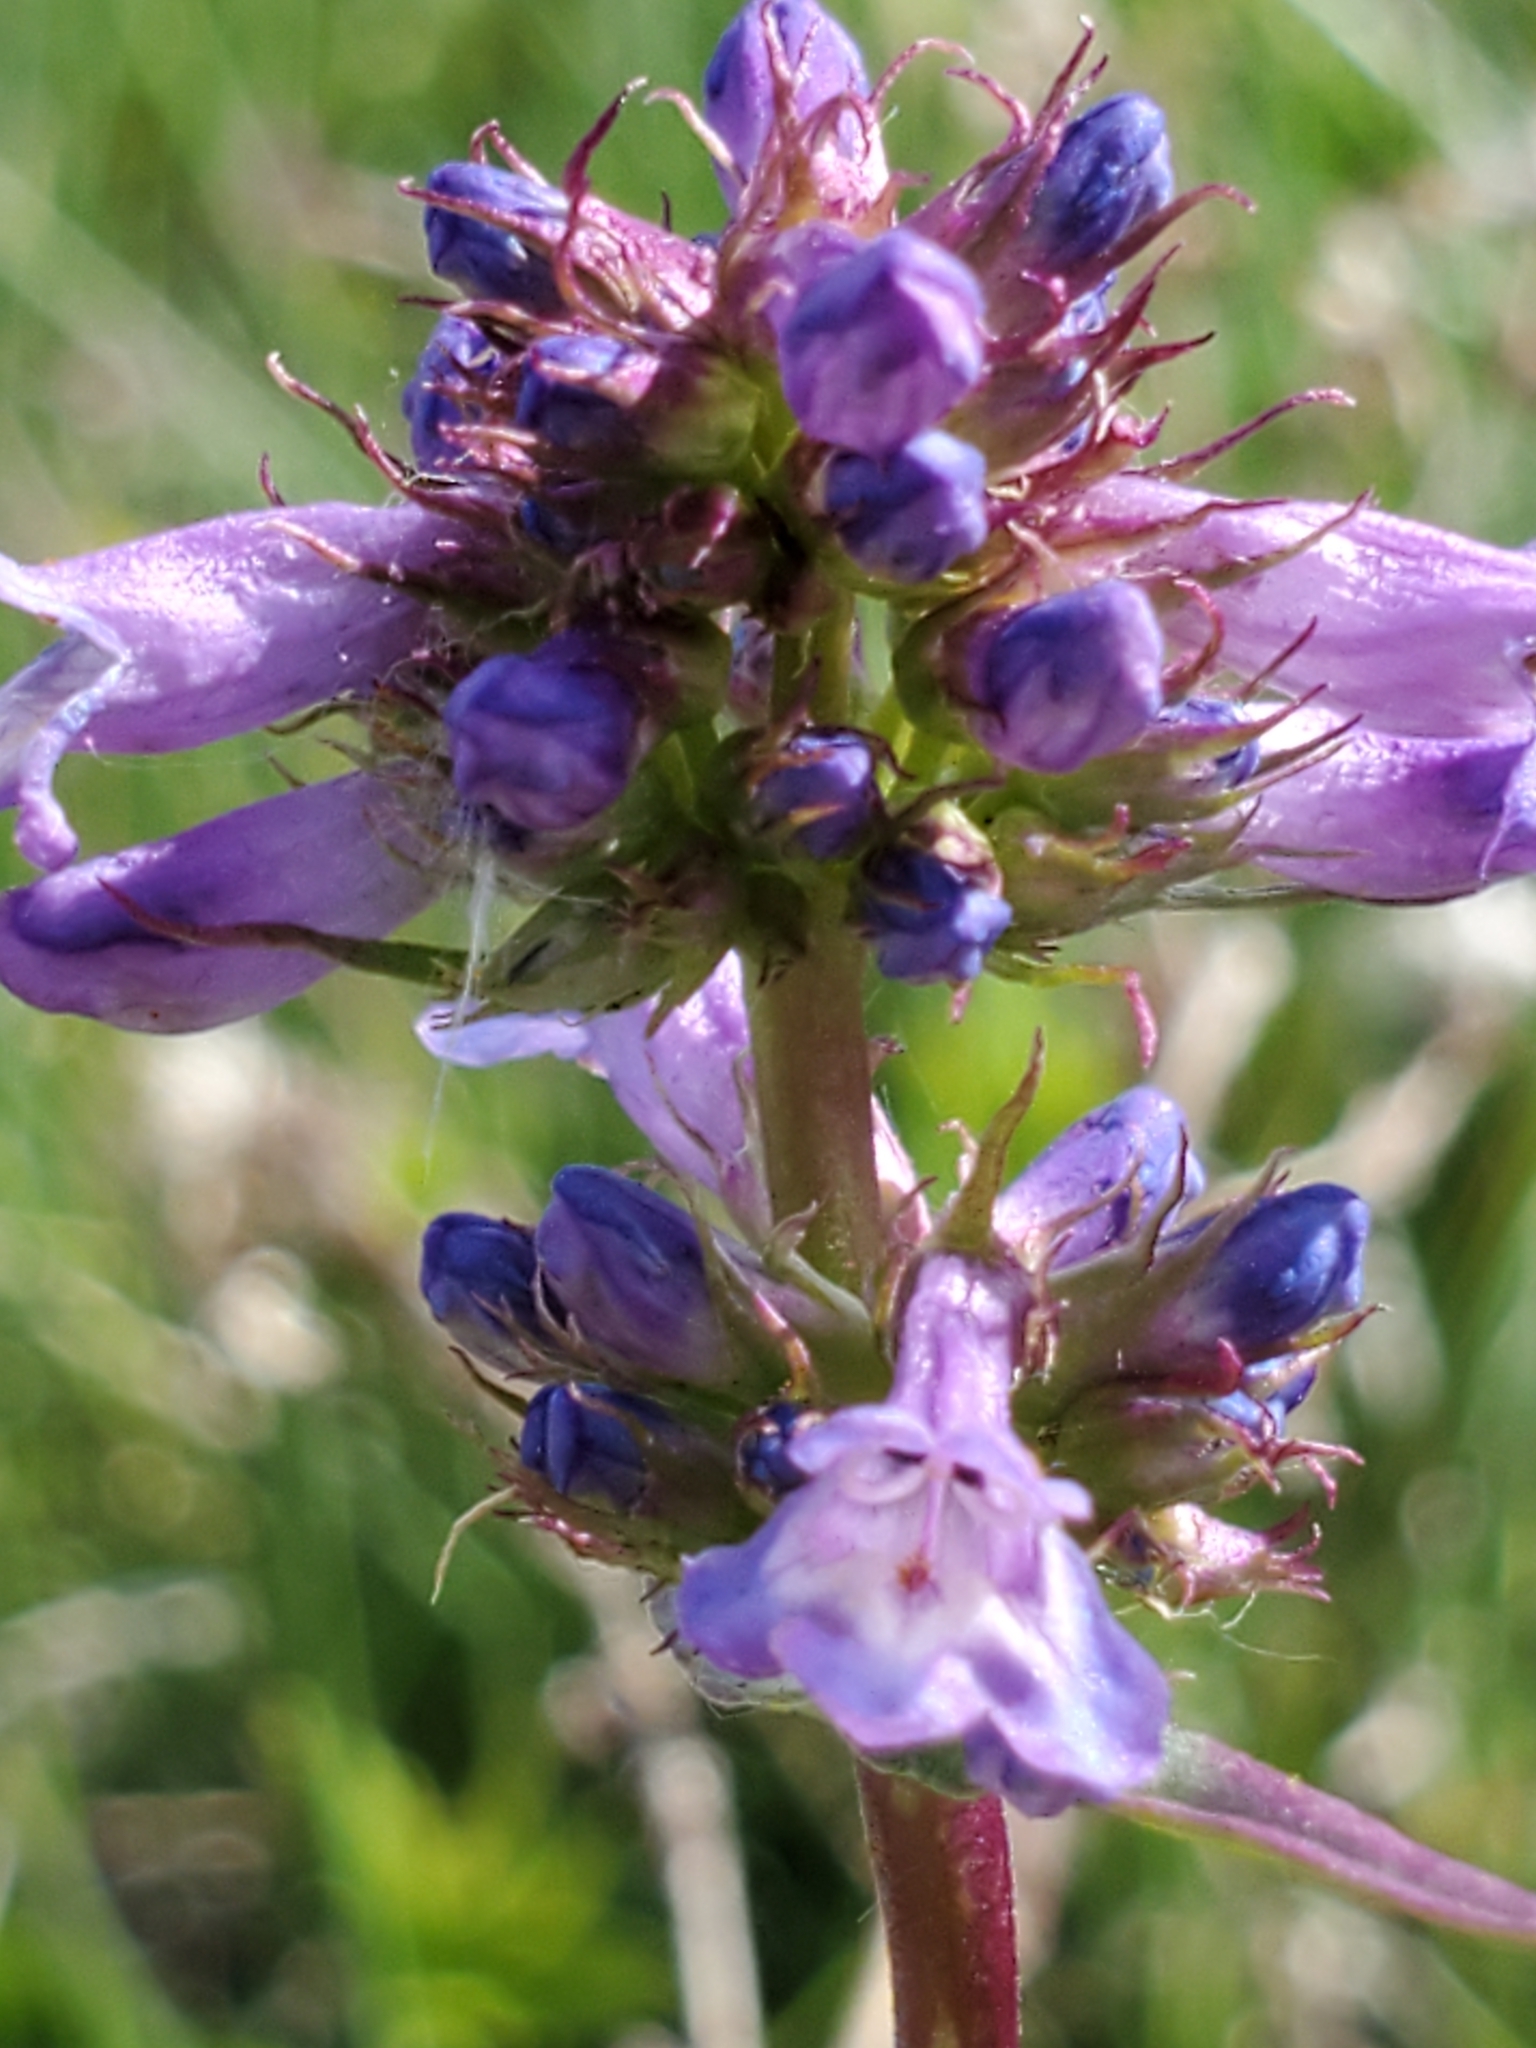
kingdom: Plantae
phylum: Tracheophyta
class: Magnoliopsida
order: Lamiales
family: Plantaginaceae
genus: Penstemon
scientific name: Penstemon procerus
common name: Small-flower penstemon
